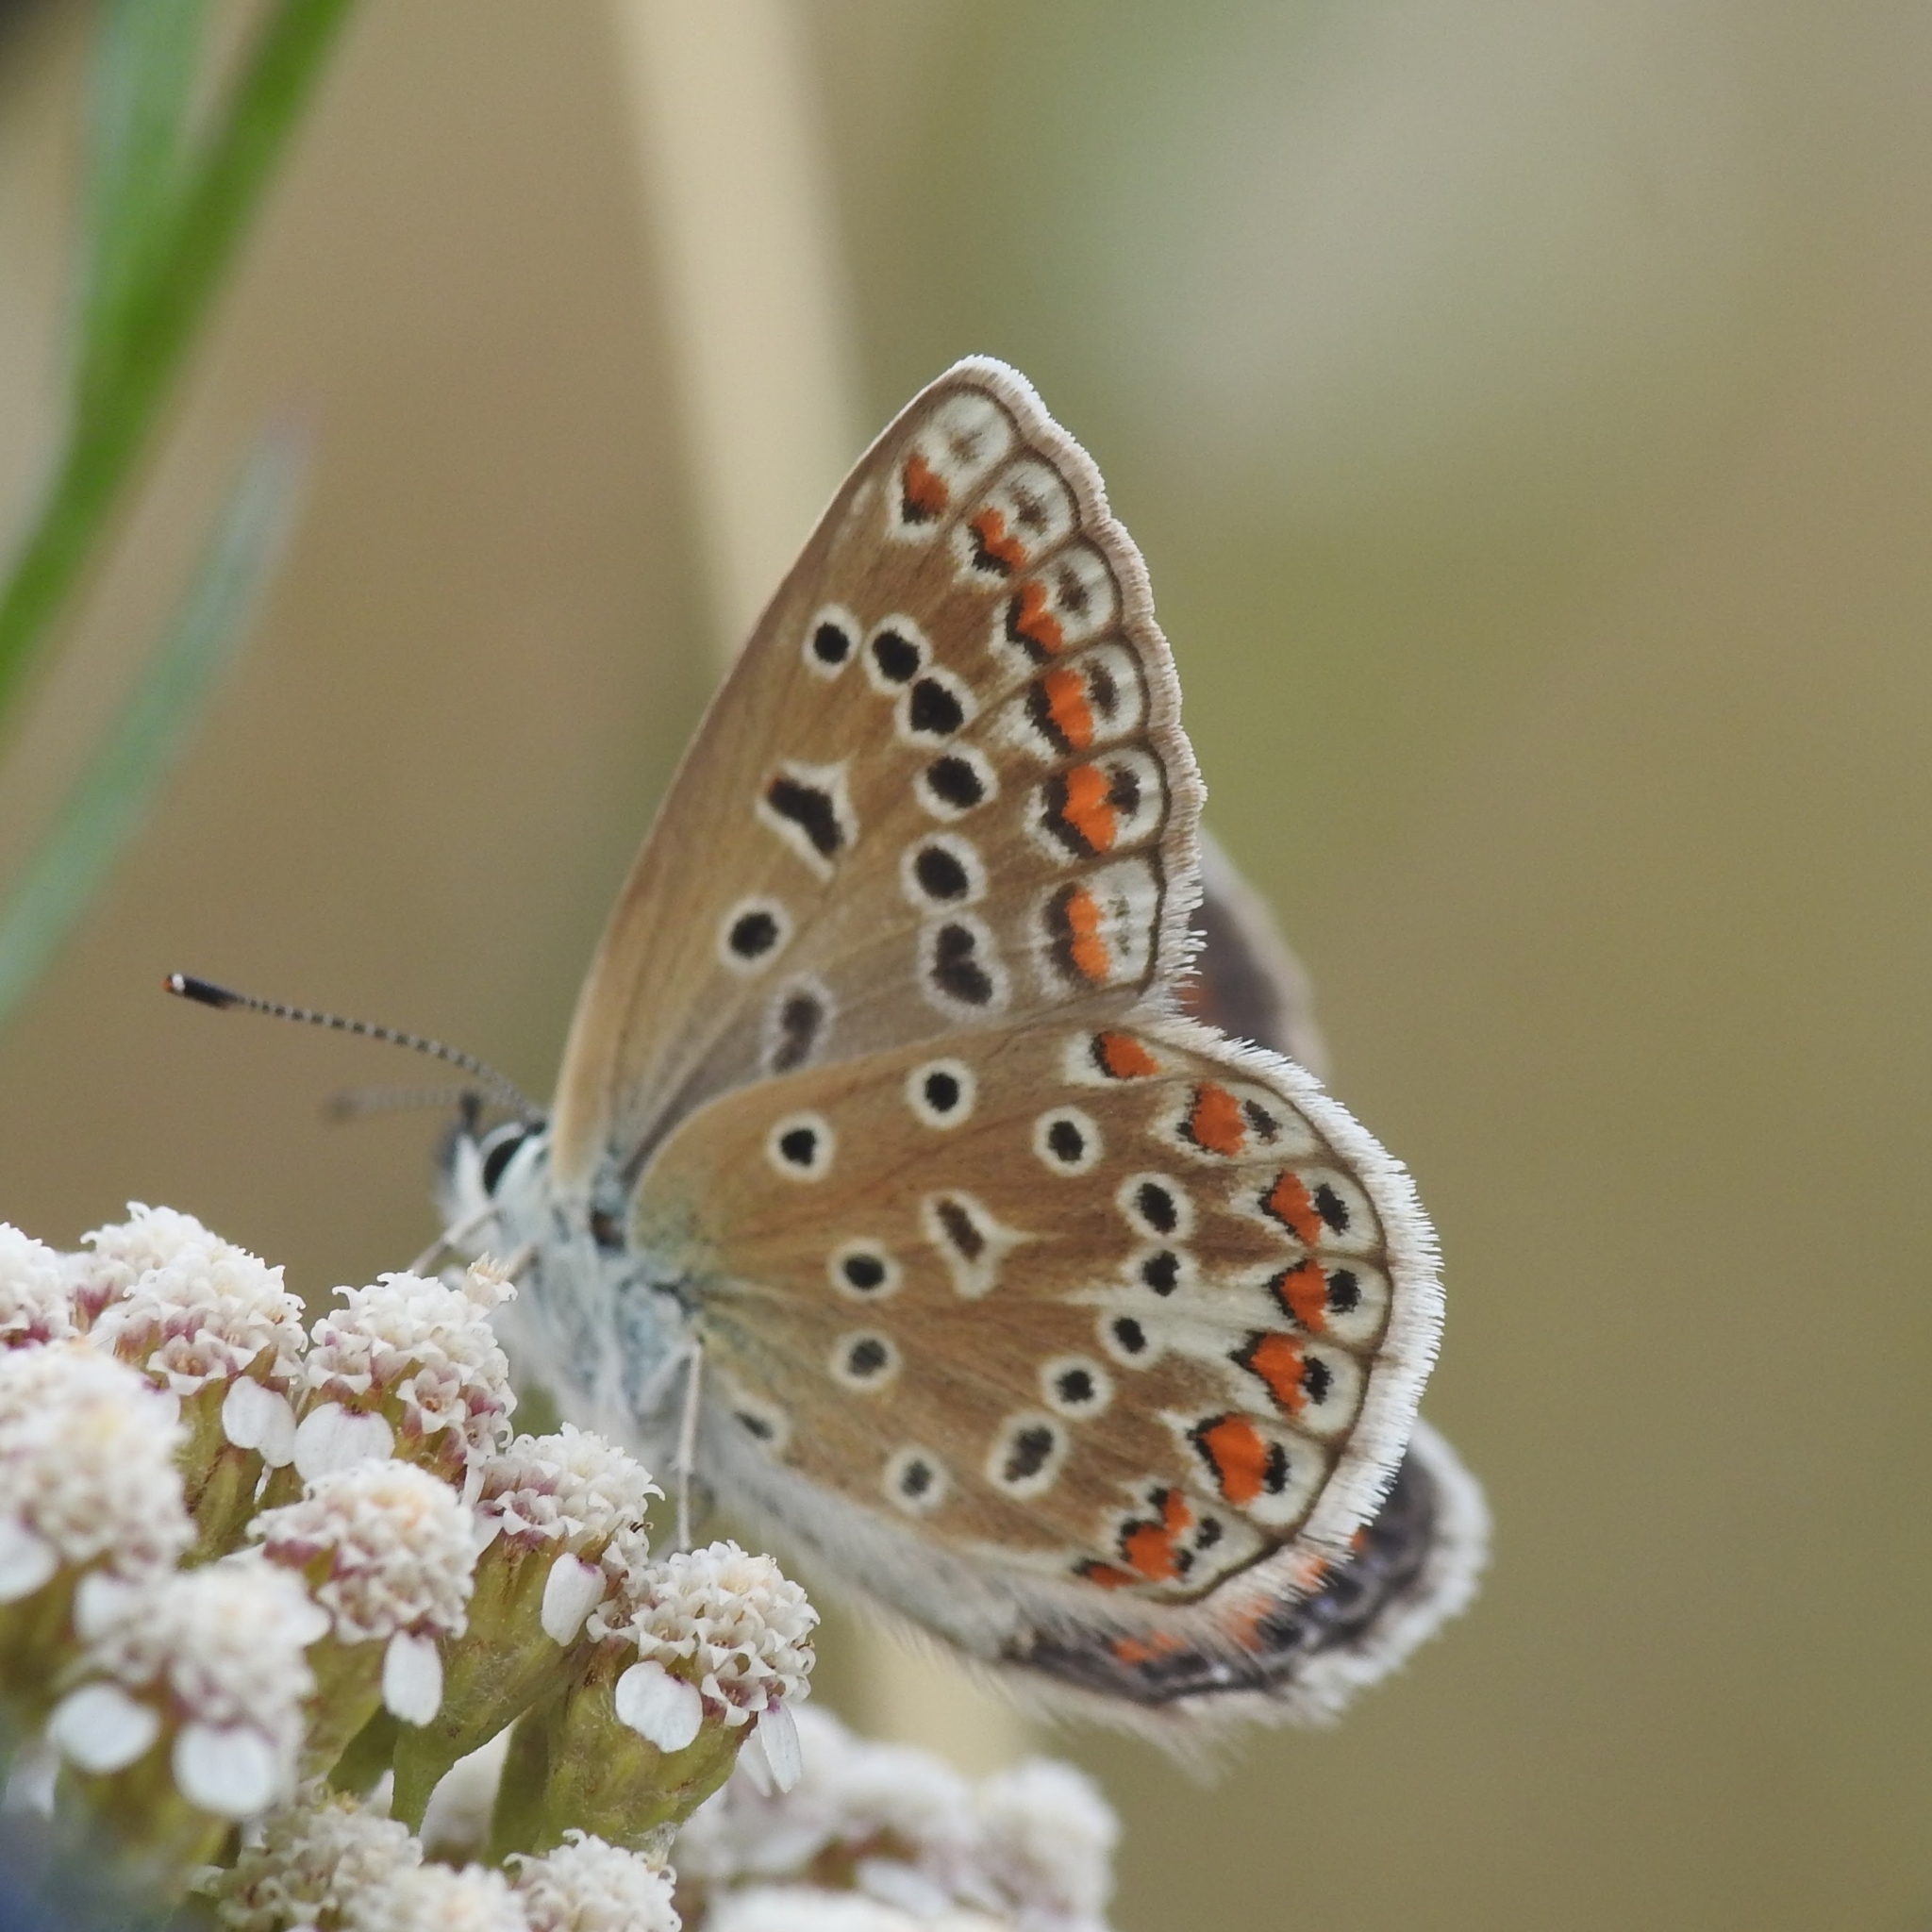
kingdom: Animalia
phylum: Arthropoda
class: Insecta
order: Lepidoptera
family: Lycaenidae
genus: Polyommatus
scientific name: Polyommatus icarus
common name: Common blue
